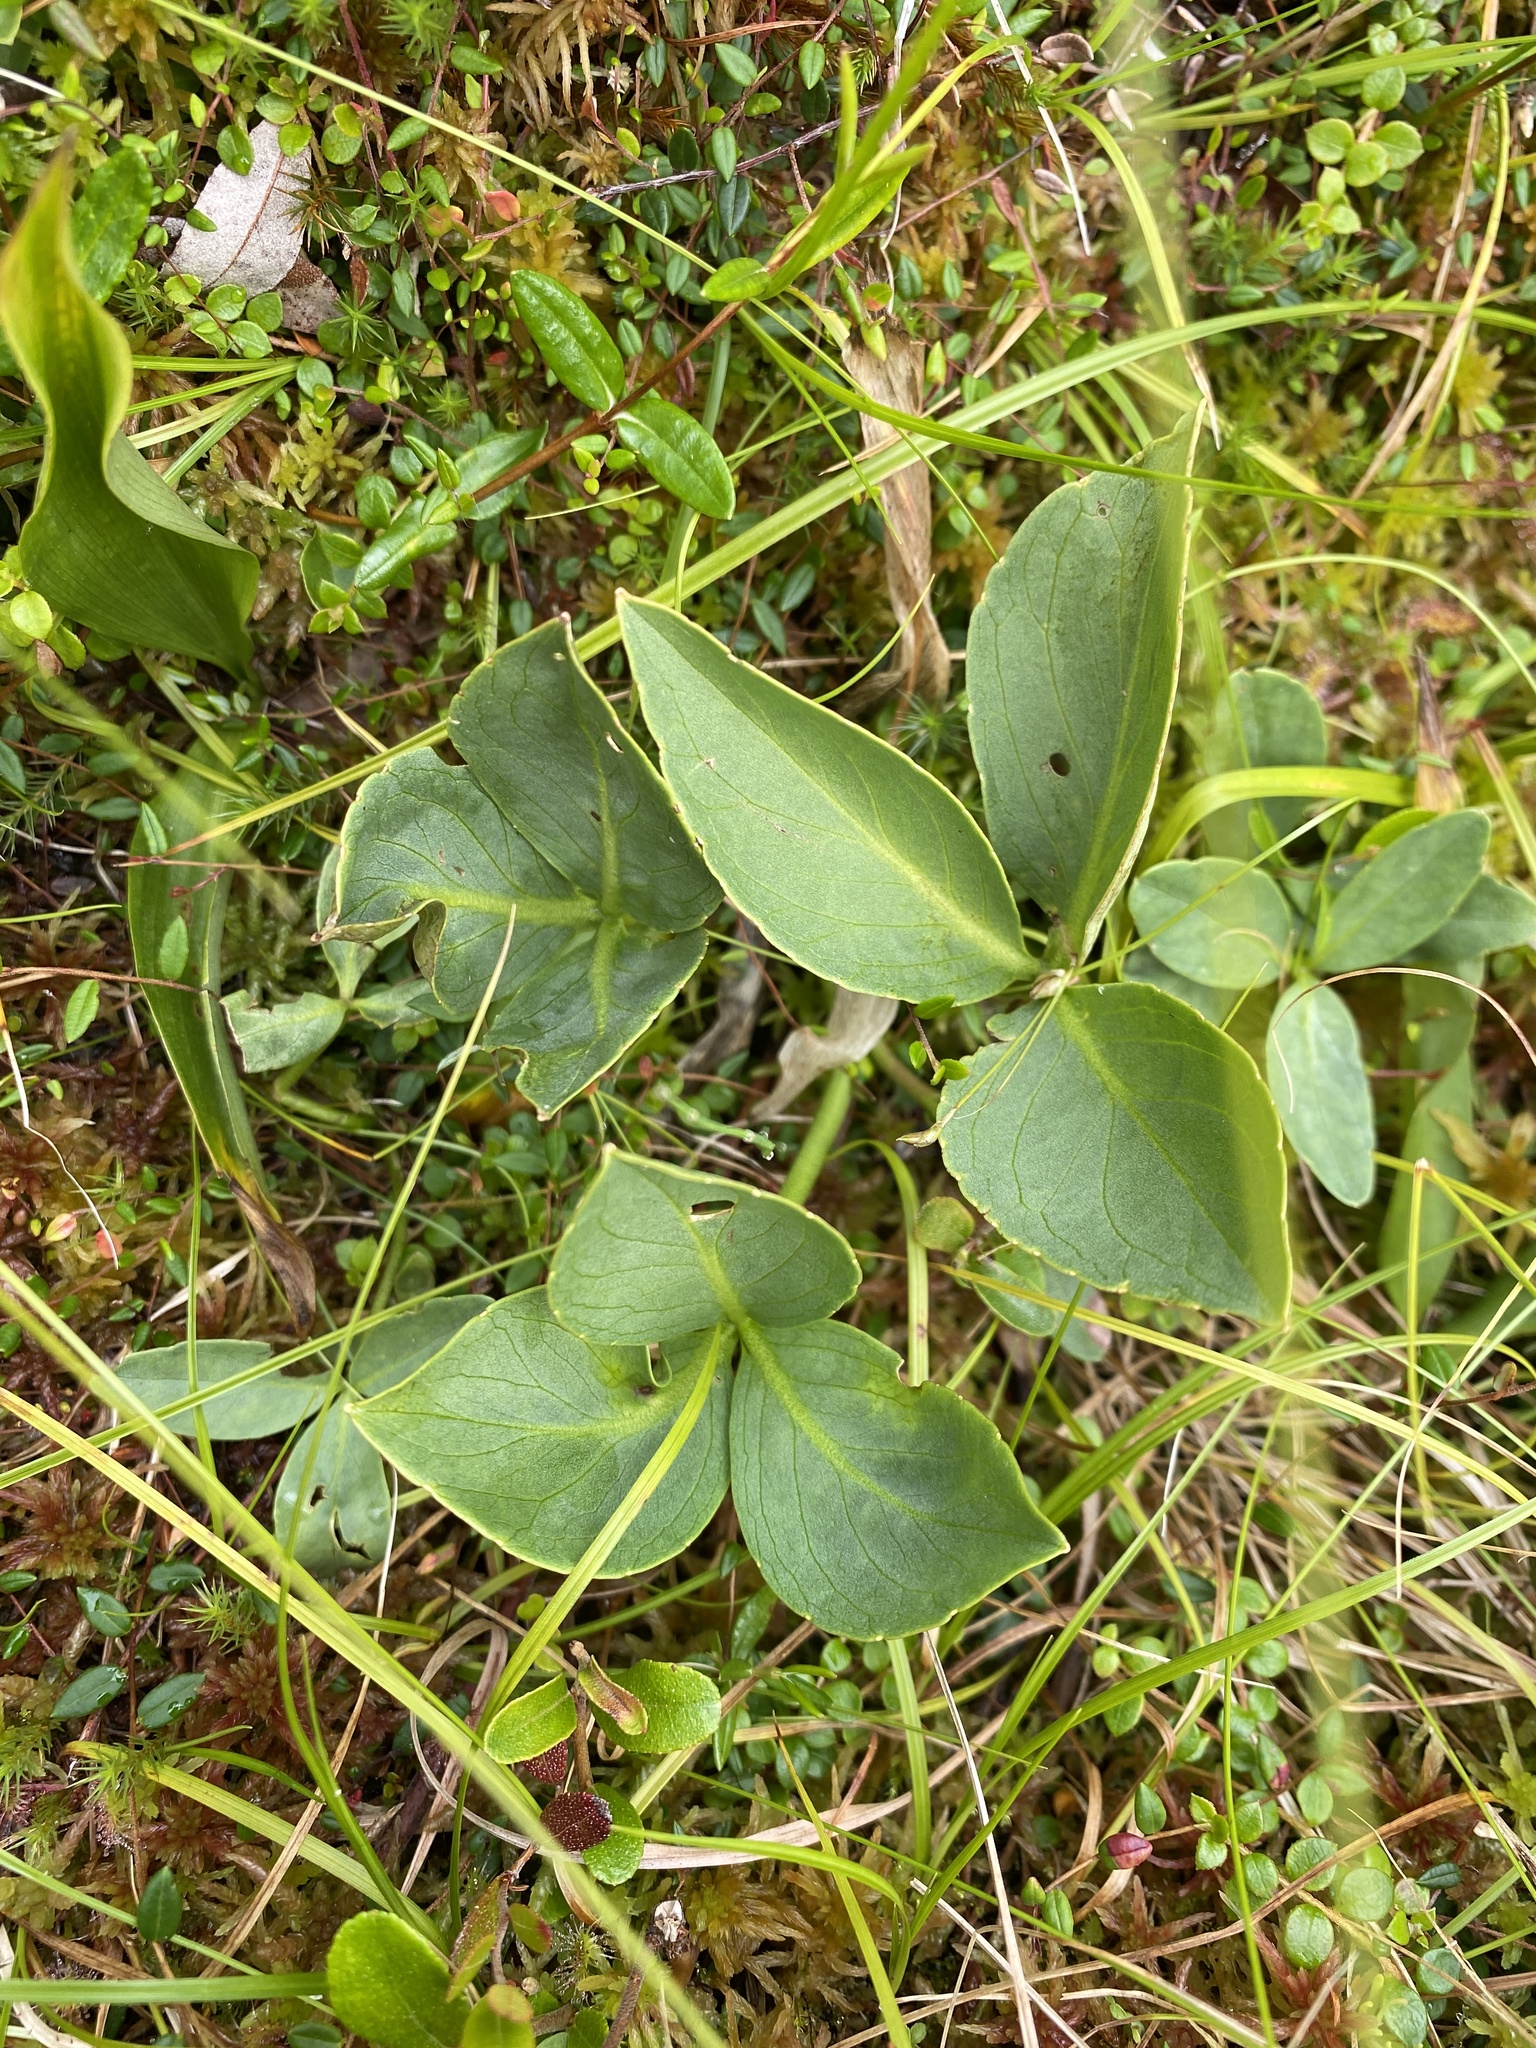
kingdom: Plantae
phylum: Tracheophyta
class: Magnoliopsida
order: Asterales
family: Menyanthaceae
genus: Menyanthes
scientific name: Menyanthes trifoliata
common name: Bogbean
